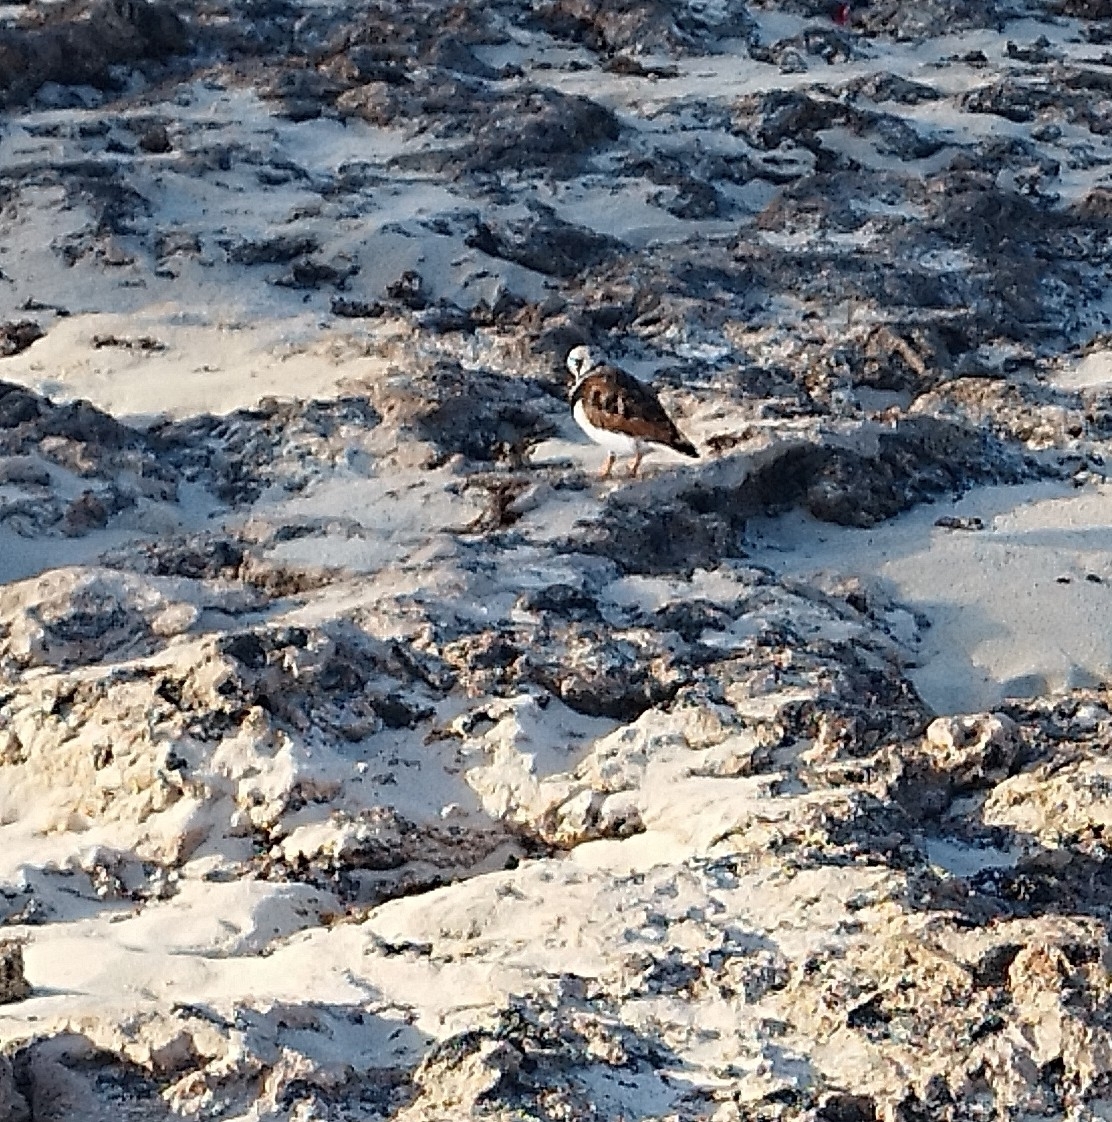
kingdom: Animalia
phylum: Chordata
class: Aves
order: Charadriiformes
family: Scolopacidae
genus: Arenaria
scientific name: Arenaria interpres
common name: Ruddy turnstone
